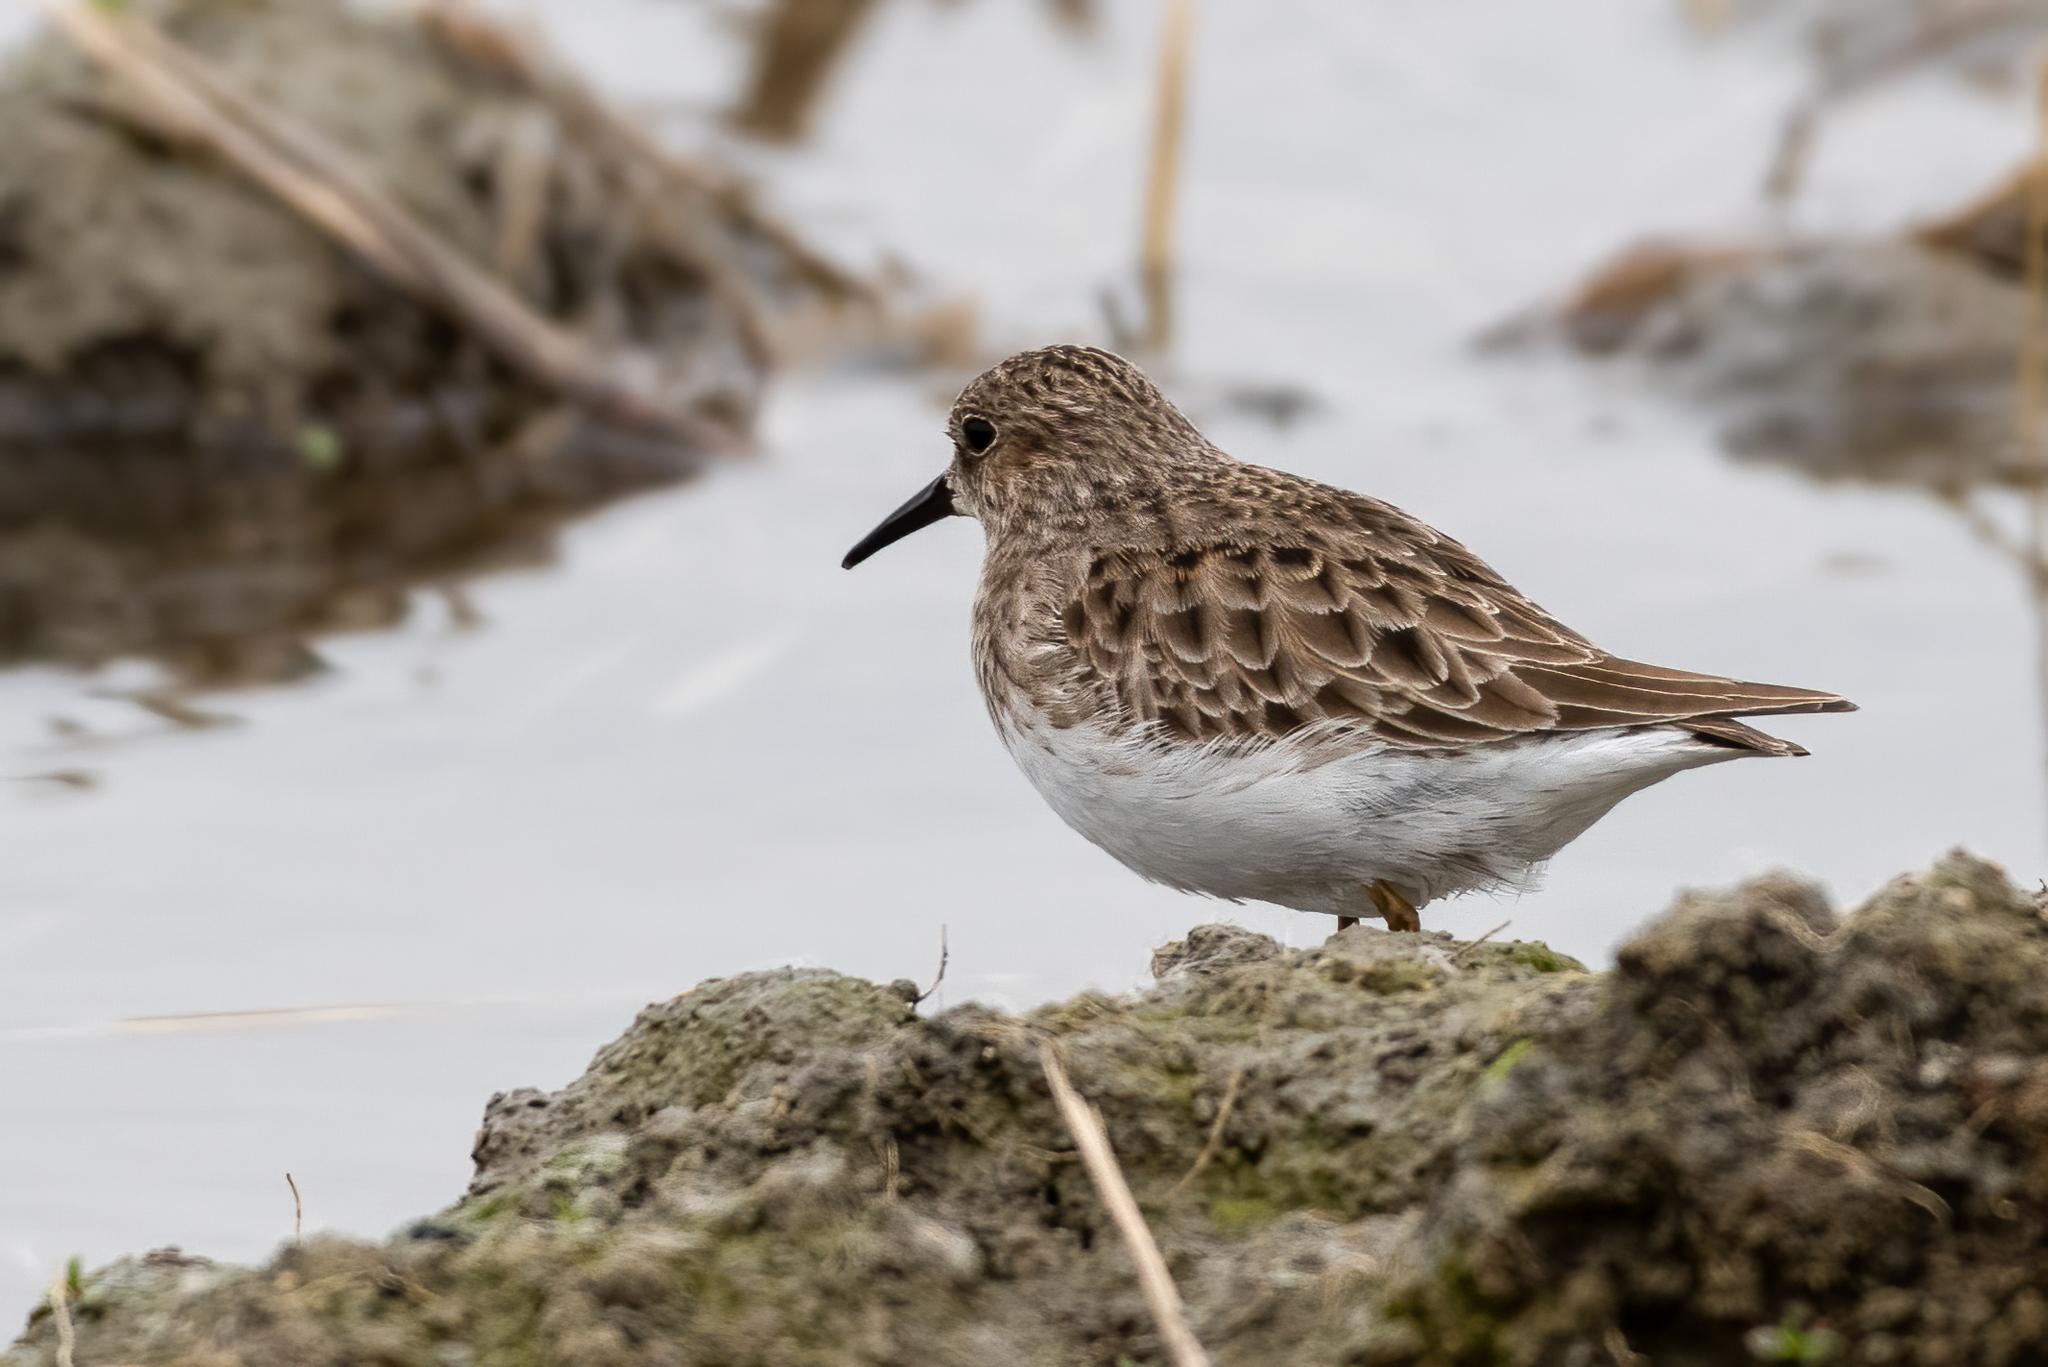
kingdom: Animalia
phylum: Chordata
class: Aves
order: Charadriiformes
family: Scolopacidae
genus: Calidris
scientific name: Calidris minutilla
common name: Least sandpiper
